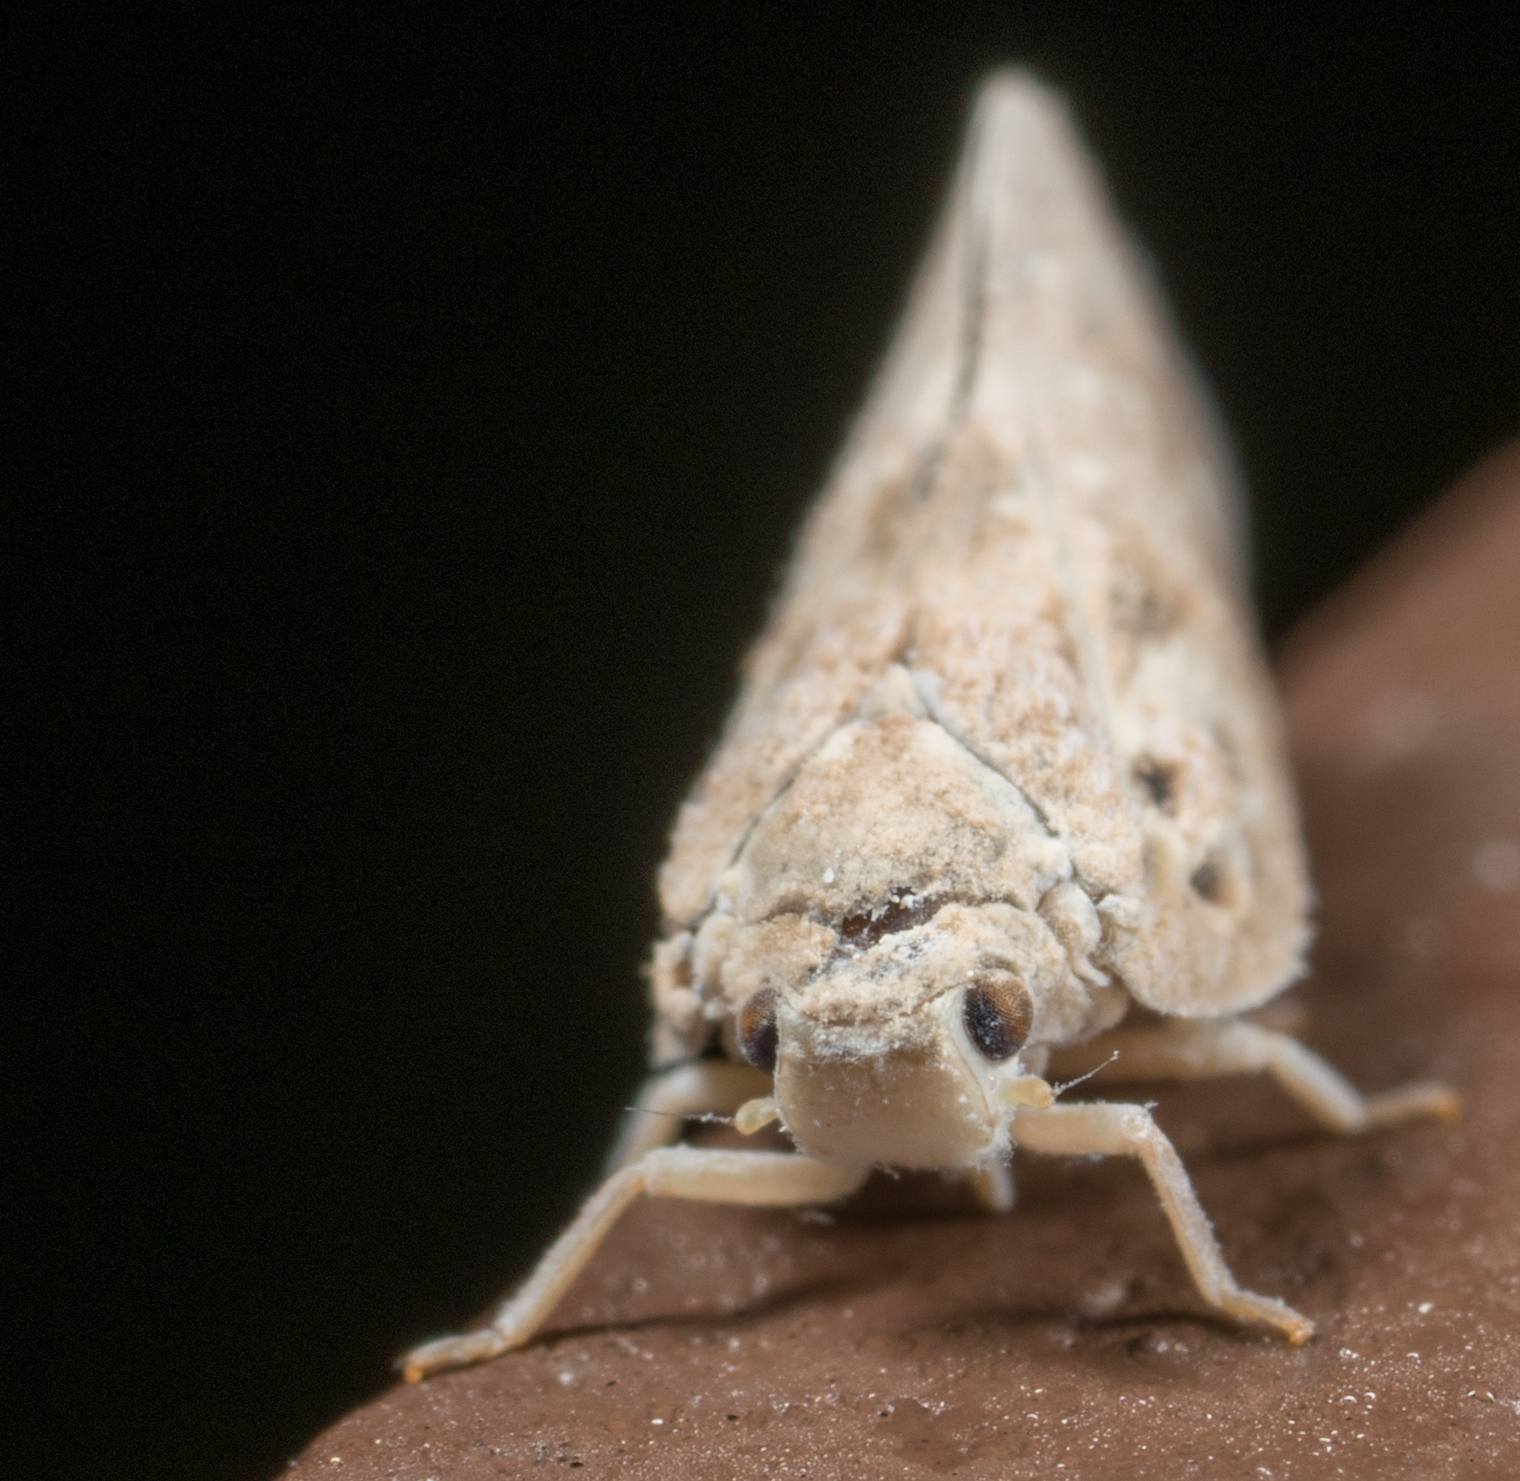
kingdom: Animalia
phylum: Arthropoda
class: Insecta
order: Hemiptera
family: Flatidae
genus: Metcalfa
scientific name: Metcalfa pruinosa
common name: Citrus flatid planthopper
